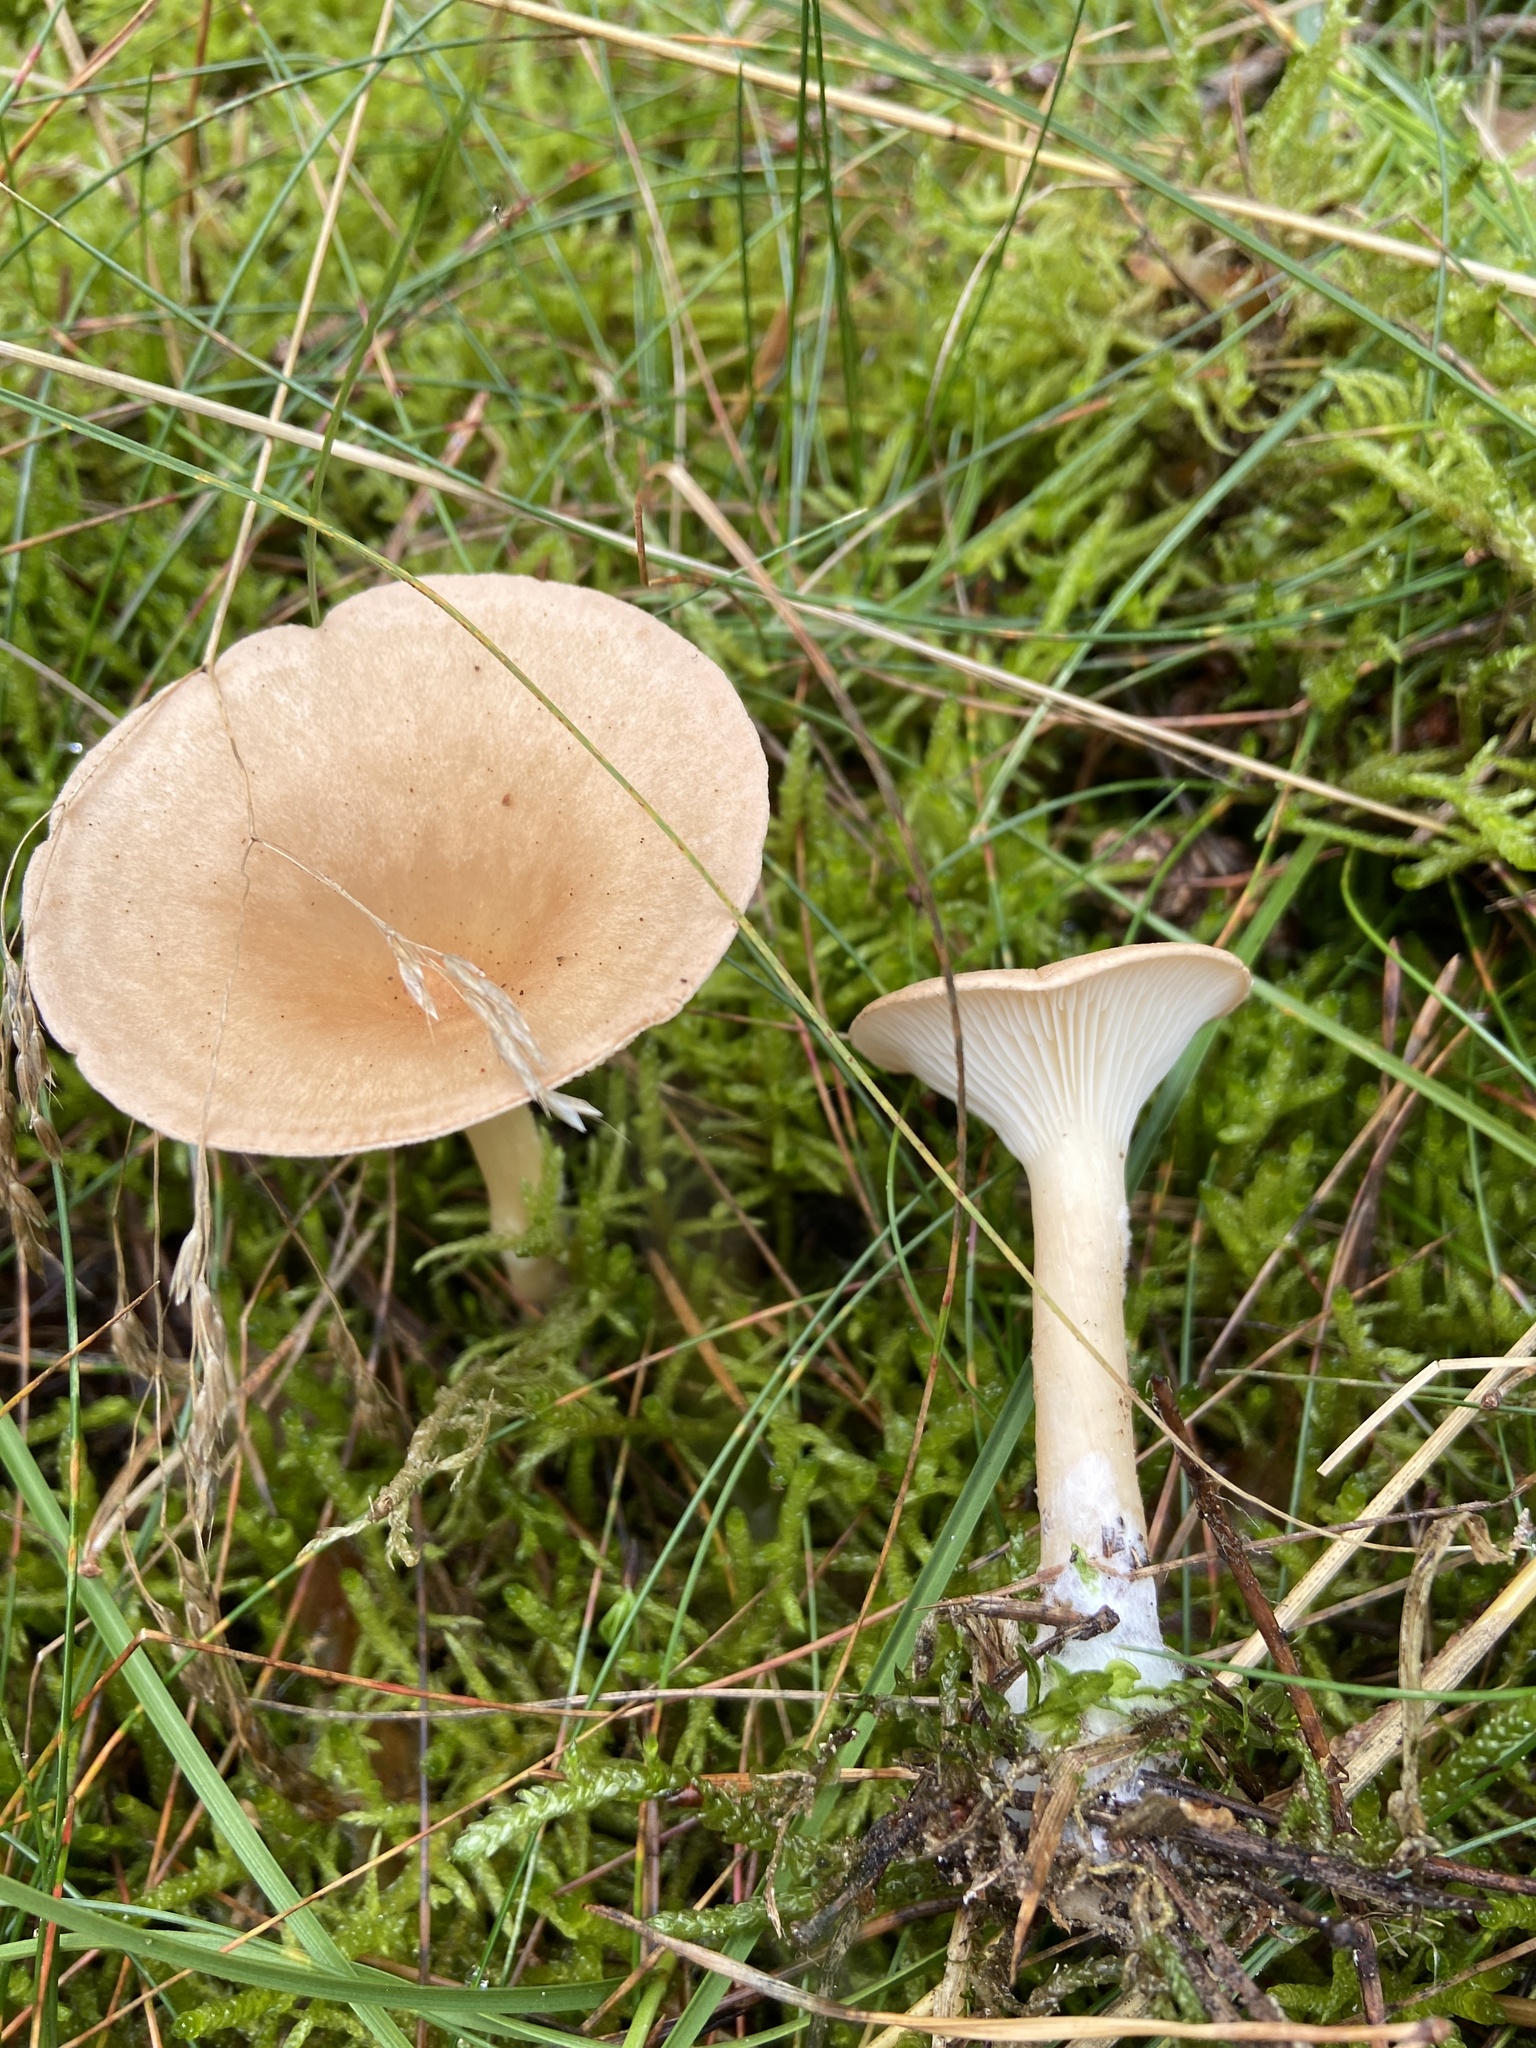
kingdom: Fungi
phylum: Basidiomycota
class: Agaricomycetes
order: Agaricales
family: Tricholomataceae
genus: Infundibulicybe
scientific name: Infundibulicybe gibba
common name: Common funnel
